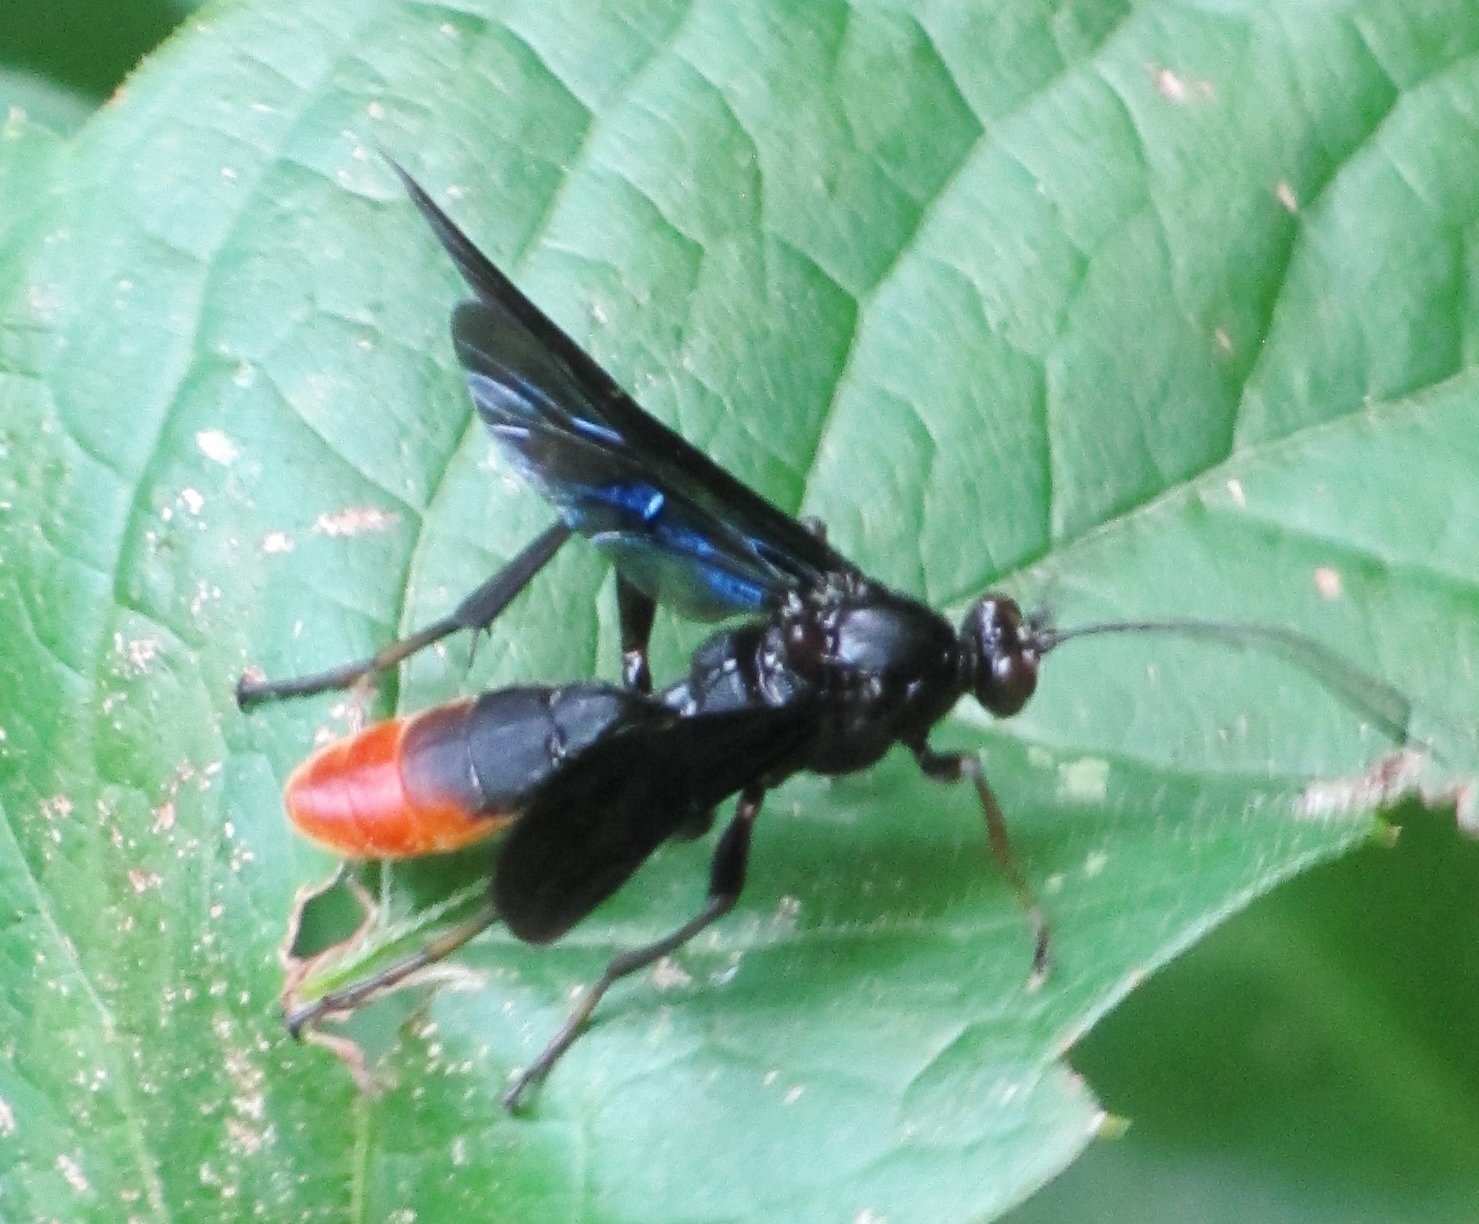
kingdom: Animalia
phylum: Arthropoda
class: Insecta
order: Hymenoptera
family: Ichneumonidae
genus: Saranaca
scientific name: Saranaca apicalis
